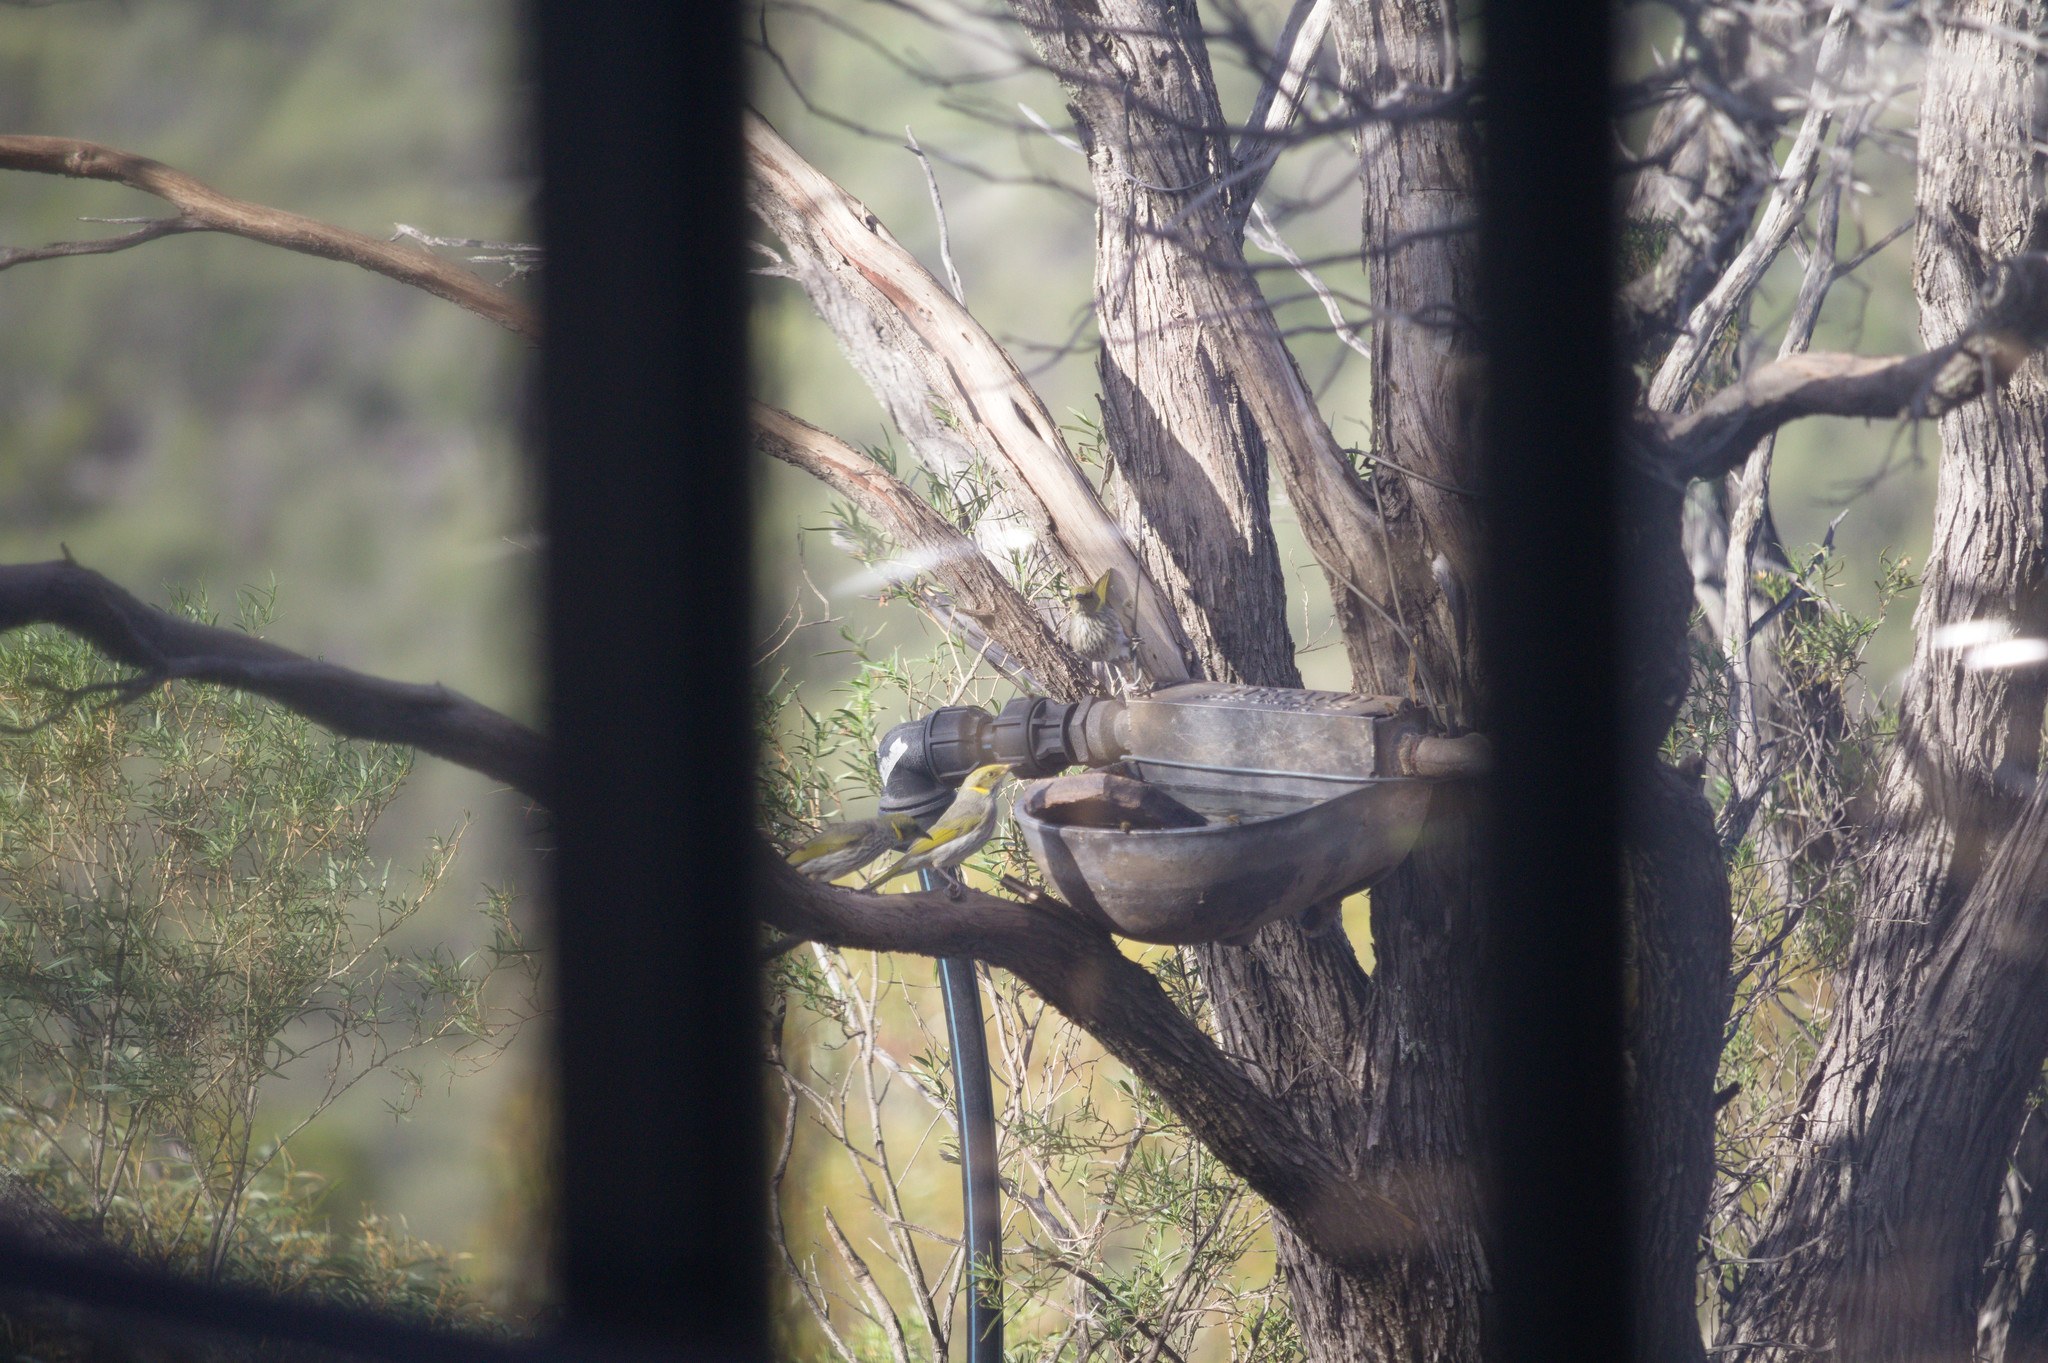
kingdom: Animalia
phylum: Chordata
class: Aves
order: Passeriformes
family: Meliphagidae
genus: Ptilotula
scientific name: Ptilotula ornata
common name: Yellow-plumed honeyeater
